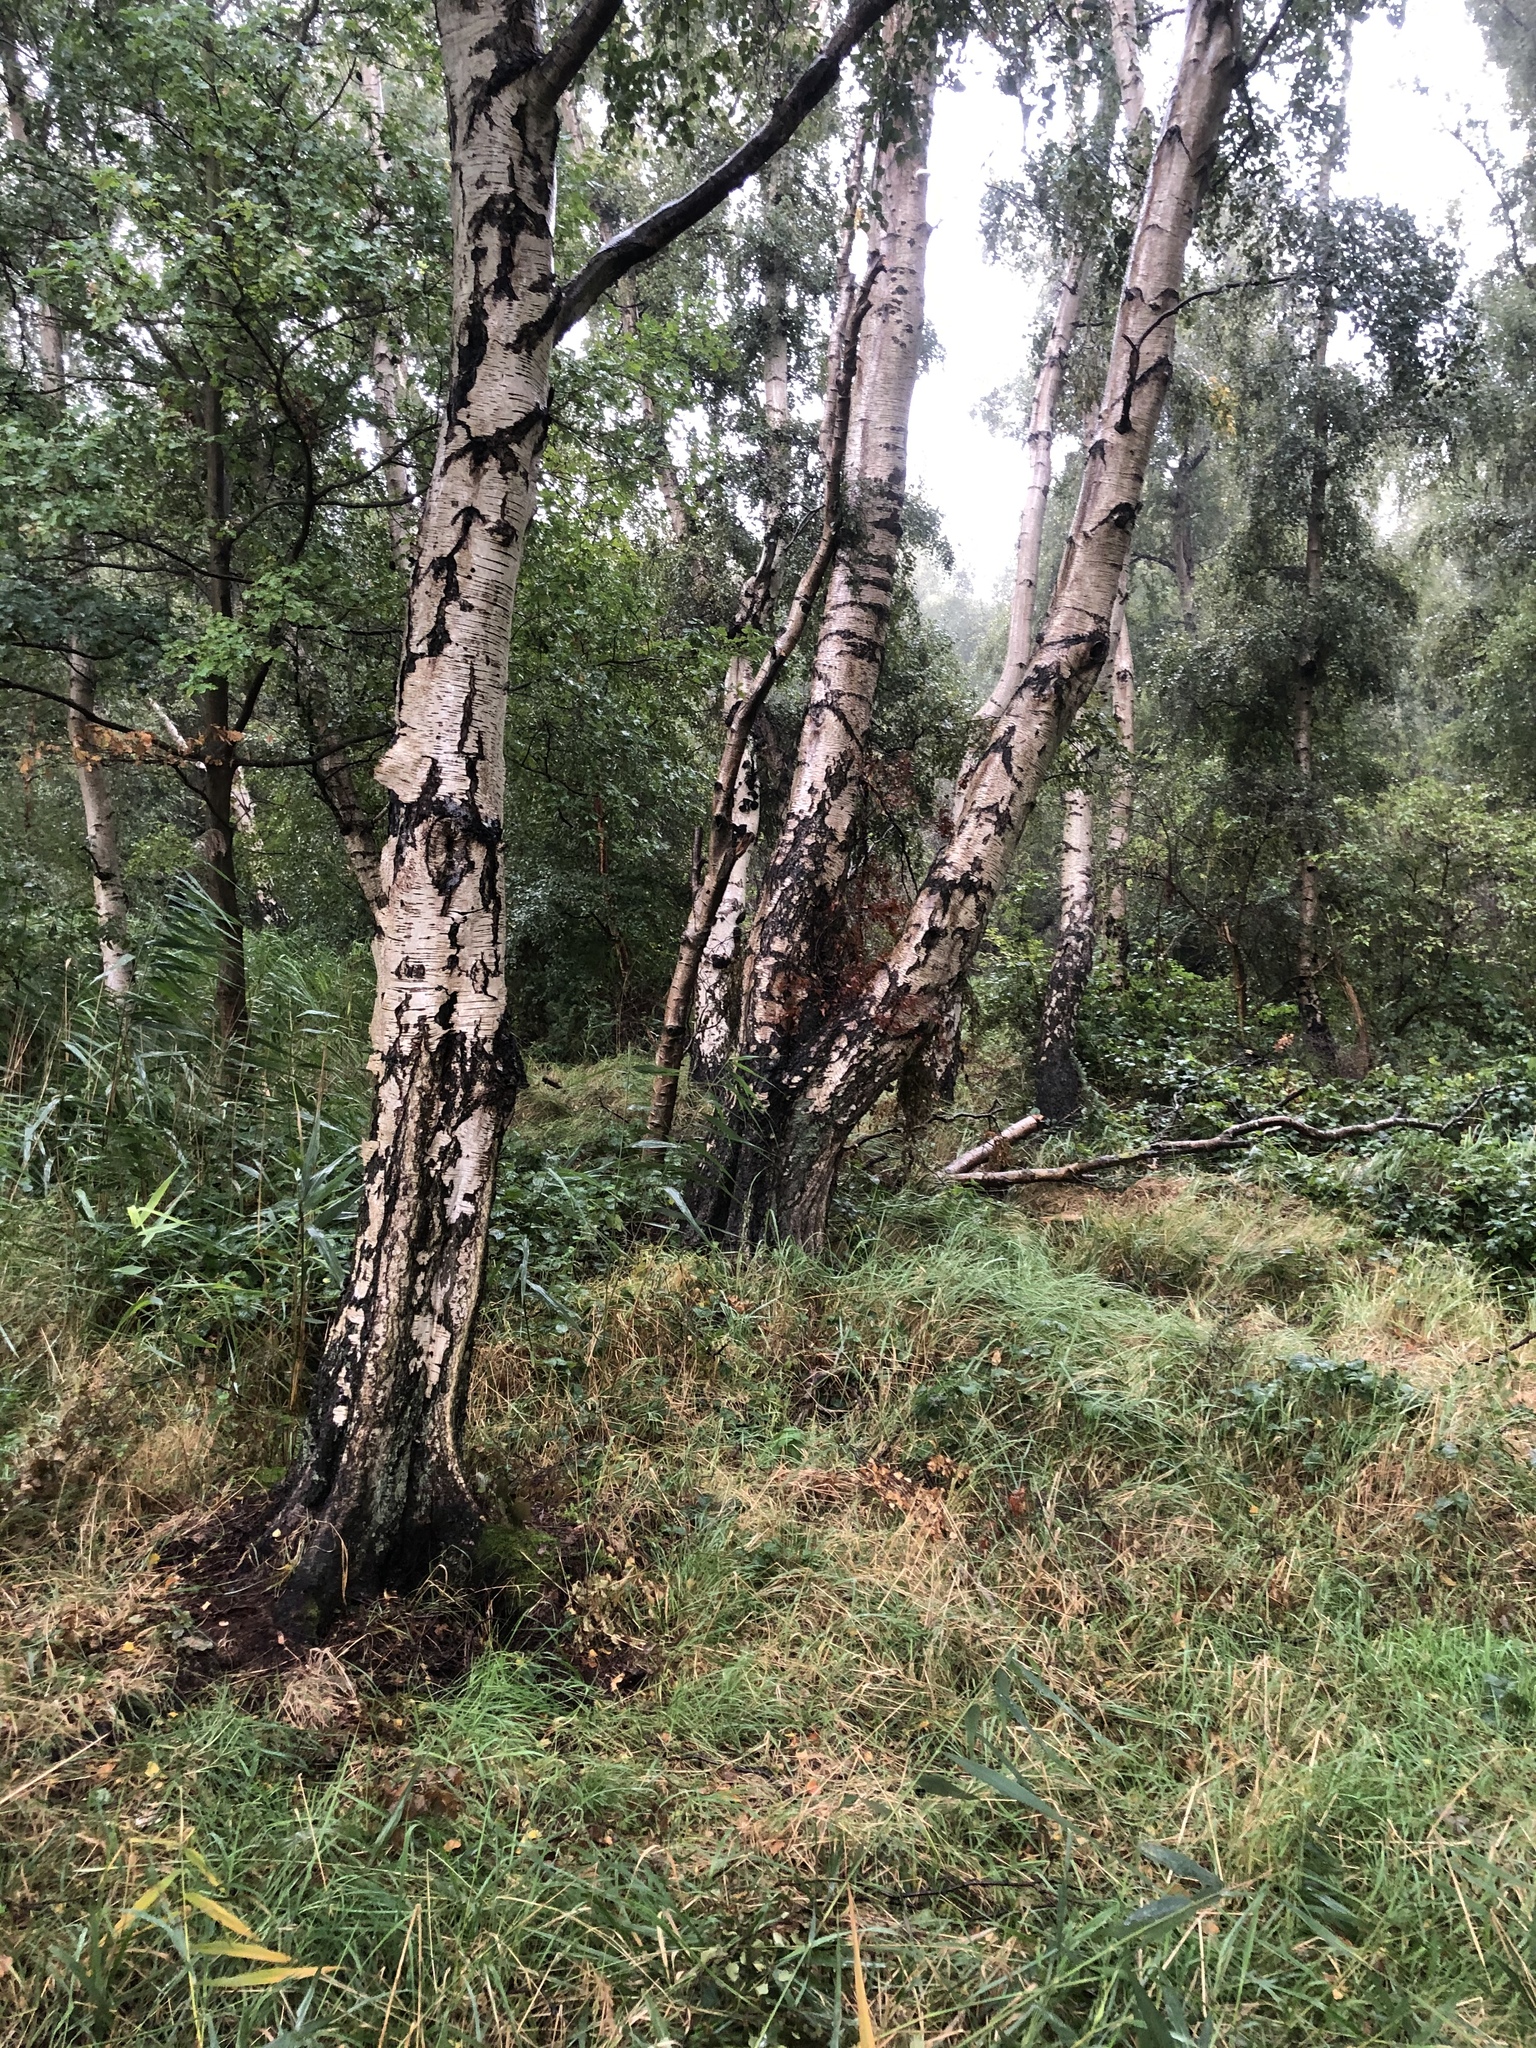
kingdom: Plantae
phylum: Tracheophyta
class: Magnoliopsida
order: Fagales
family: Betulaceae
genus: Betula
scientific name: Betula pendula
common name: Silver birch
